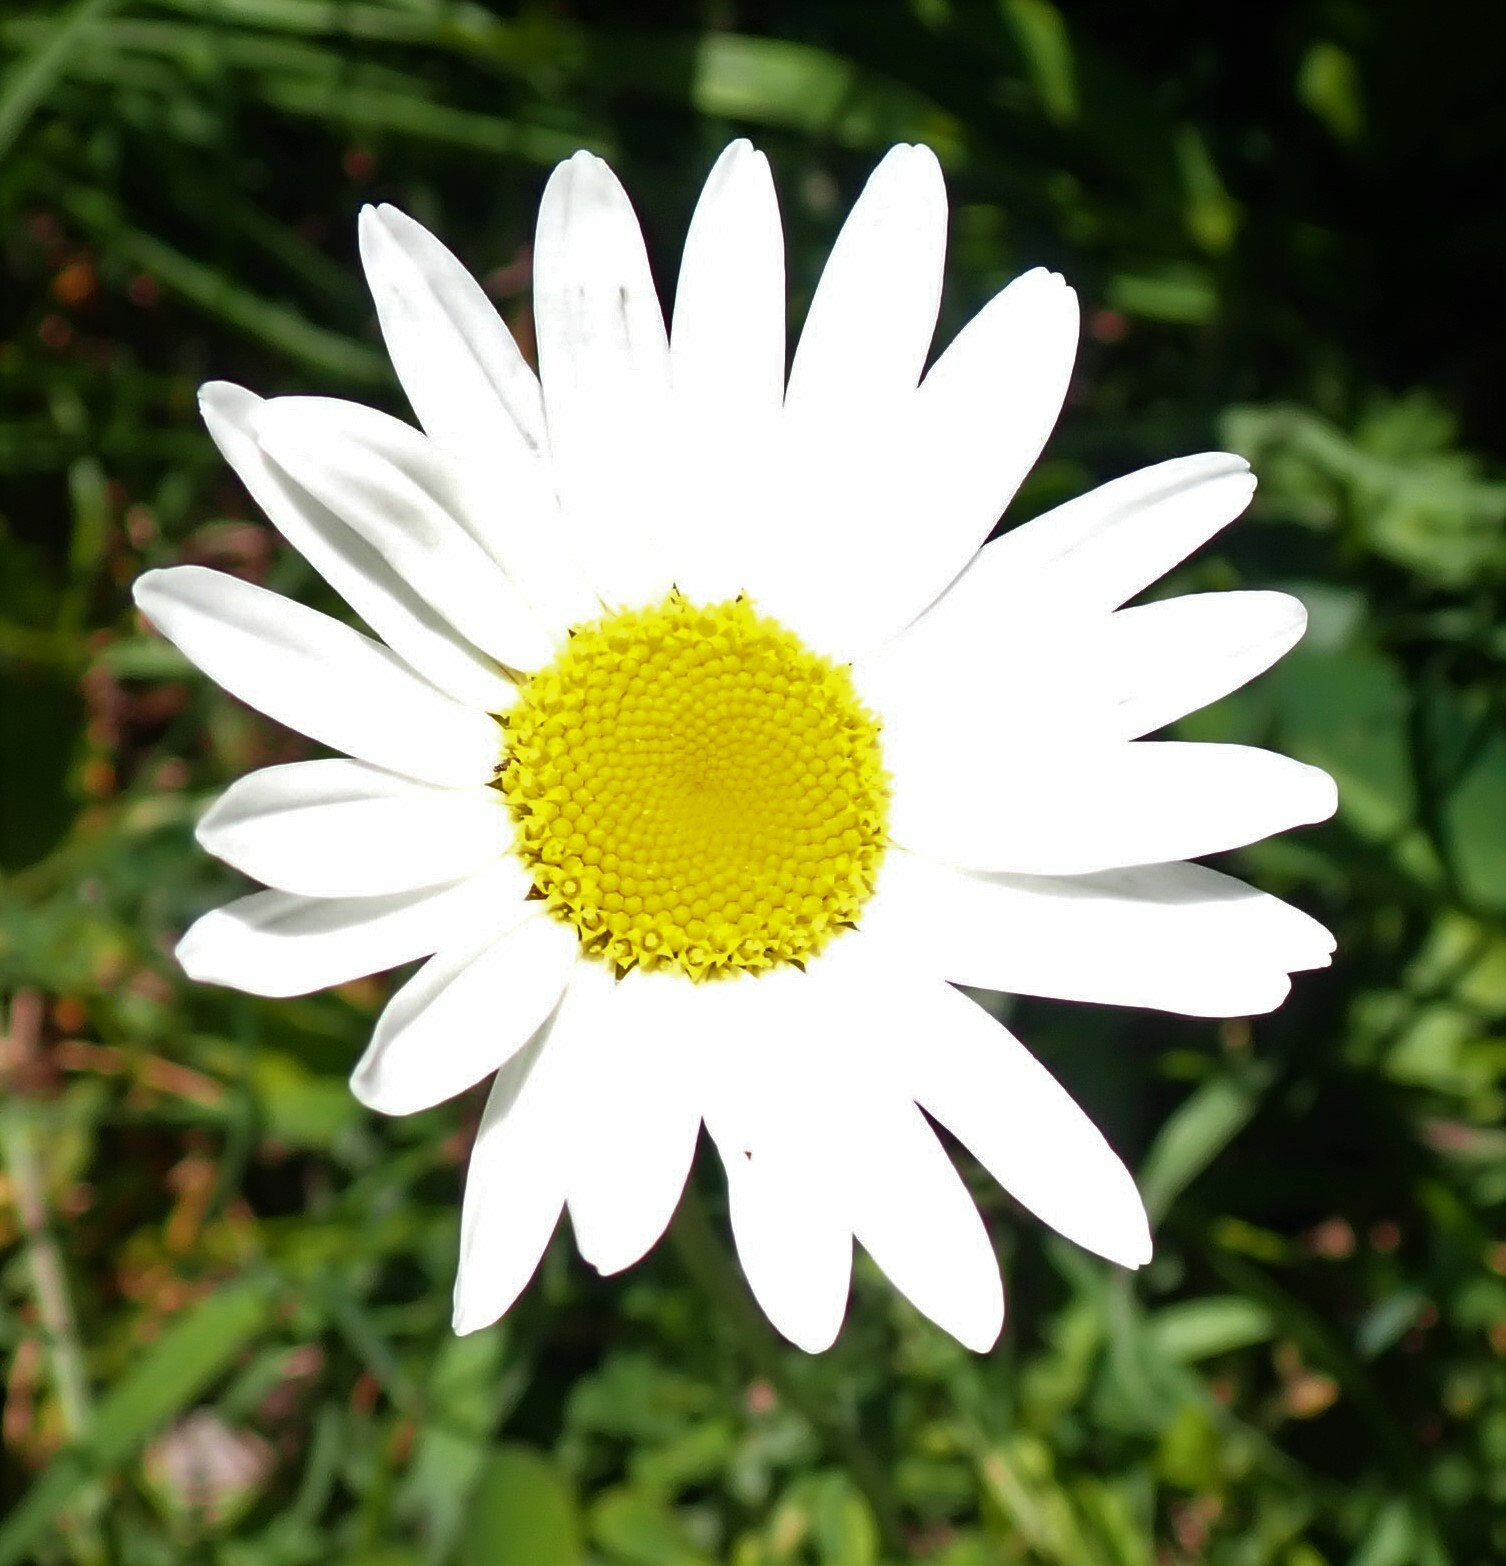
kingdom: Plantae
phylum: Tracheophyta
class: Magnoliopsida
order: Asterales
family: Asteraceae
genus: Leucanthemum
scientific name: Leucanthemum vulgare
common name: Oxeye daisy
